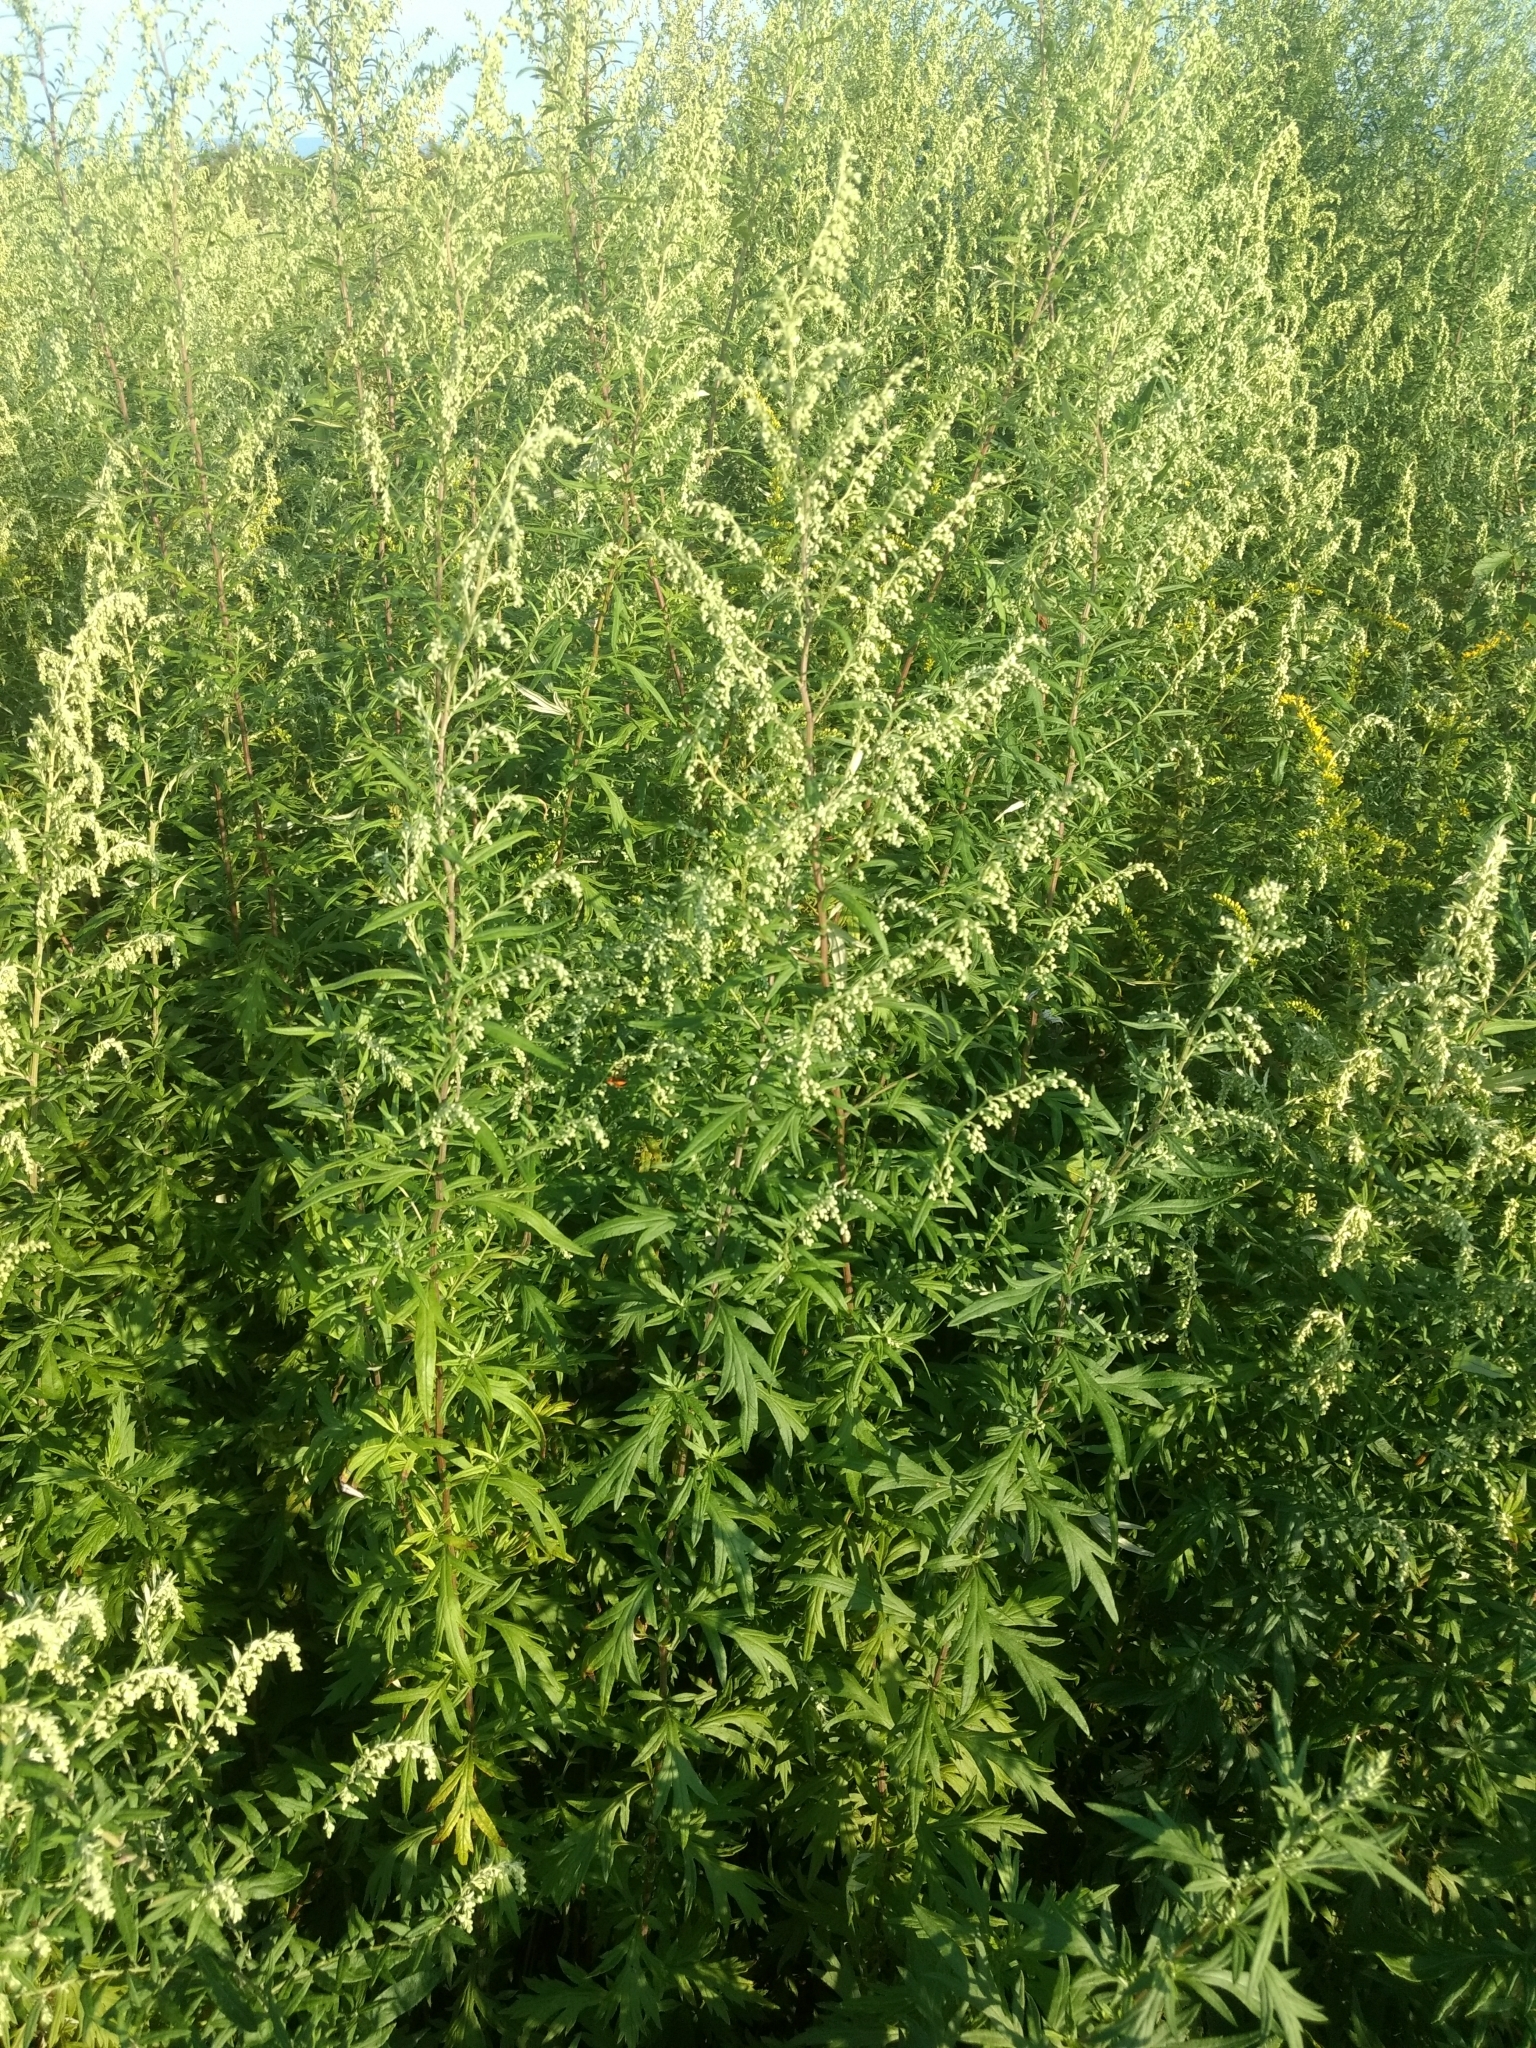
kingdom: Plantae
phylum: Tracheophyta
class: Magnoliopsida
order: Asterales
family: Asteraceae
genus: Artemisia
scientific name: Artemisia vulgaris
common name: Mugwort
